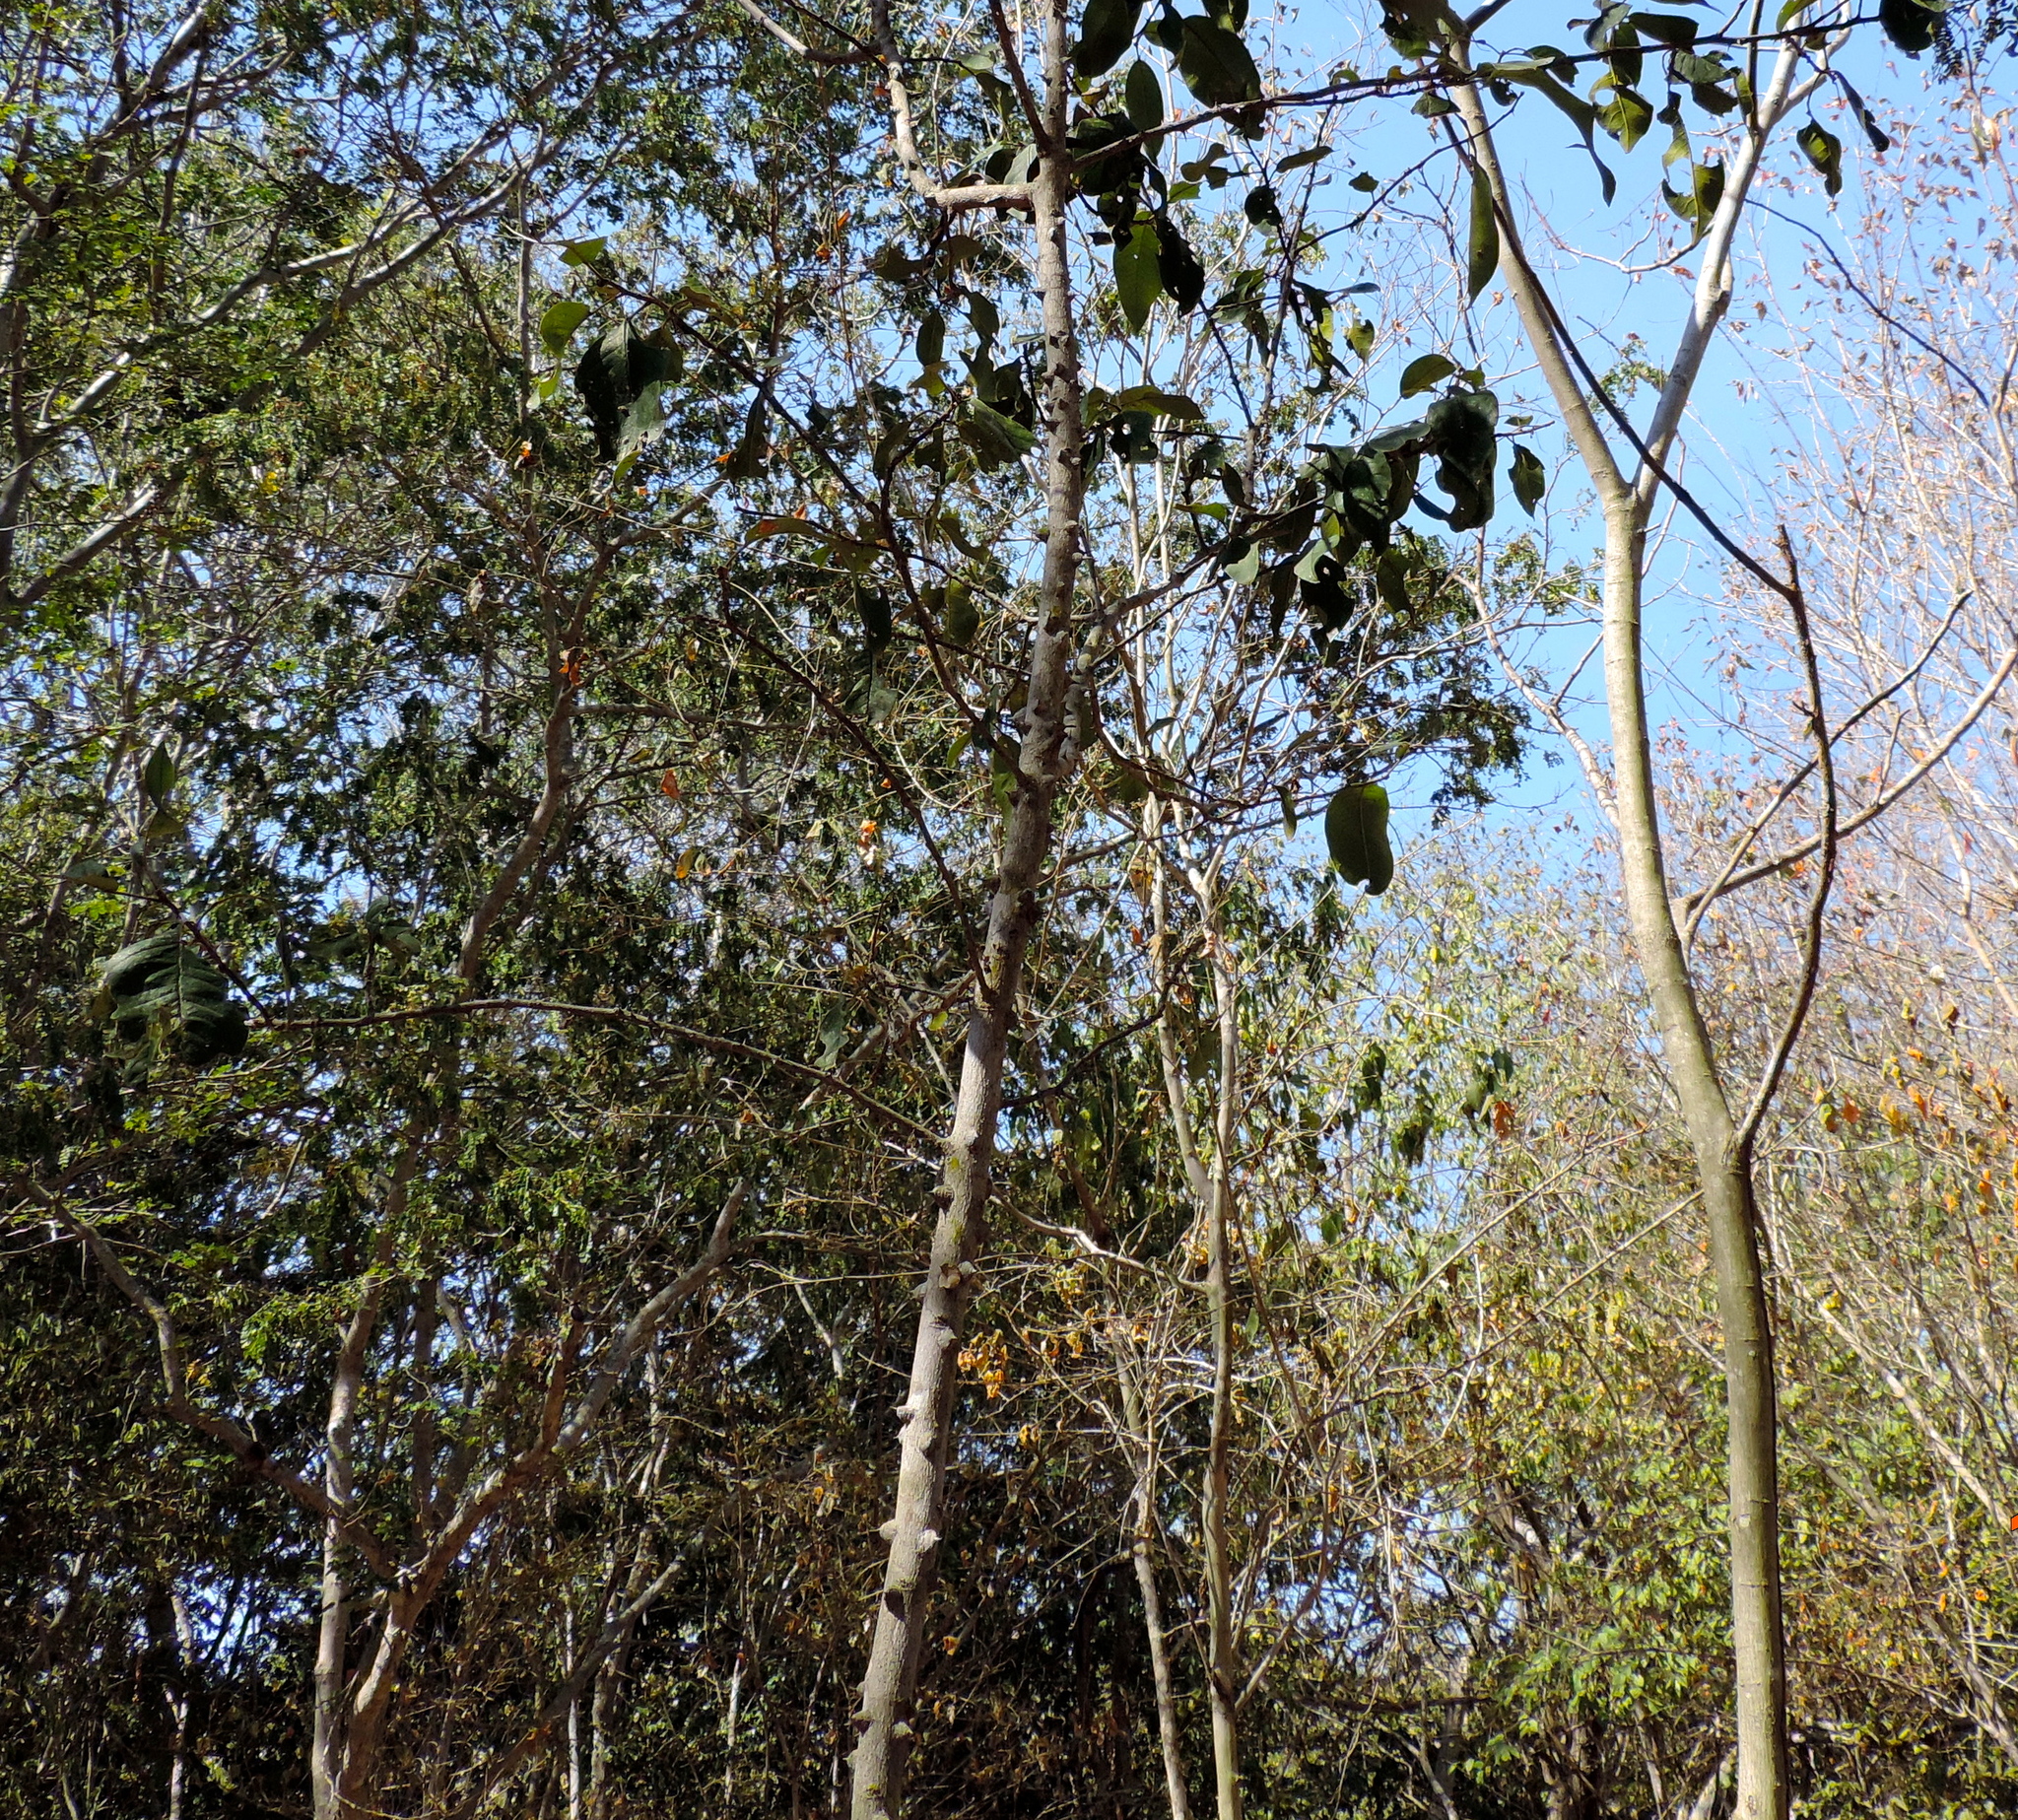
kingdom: Plantae
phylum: Tracheophyta
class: Magnoliopsida
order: Sapindales
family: Rutaceae
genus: Zanthoxylum
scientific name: Zanthoxylum arborescens
